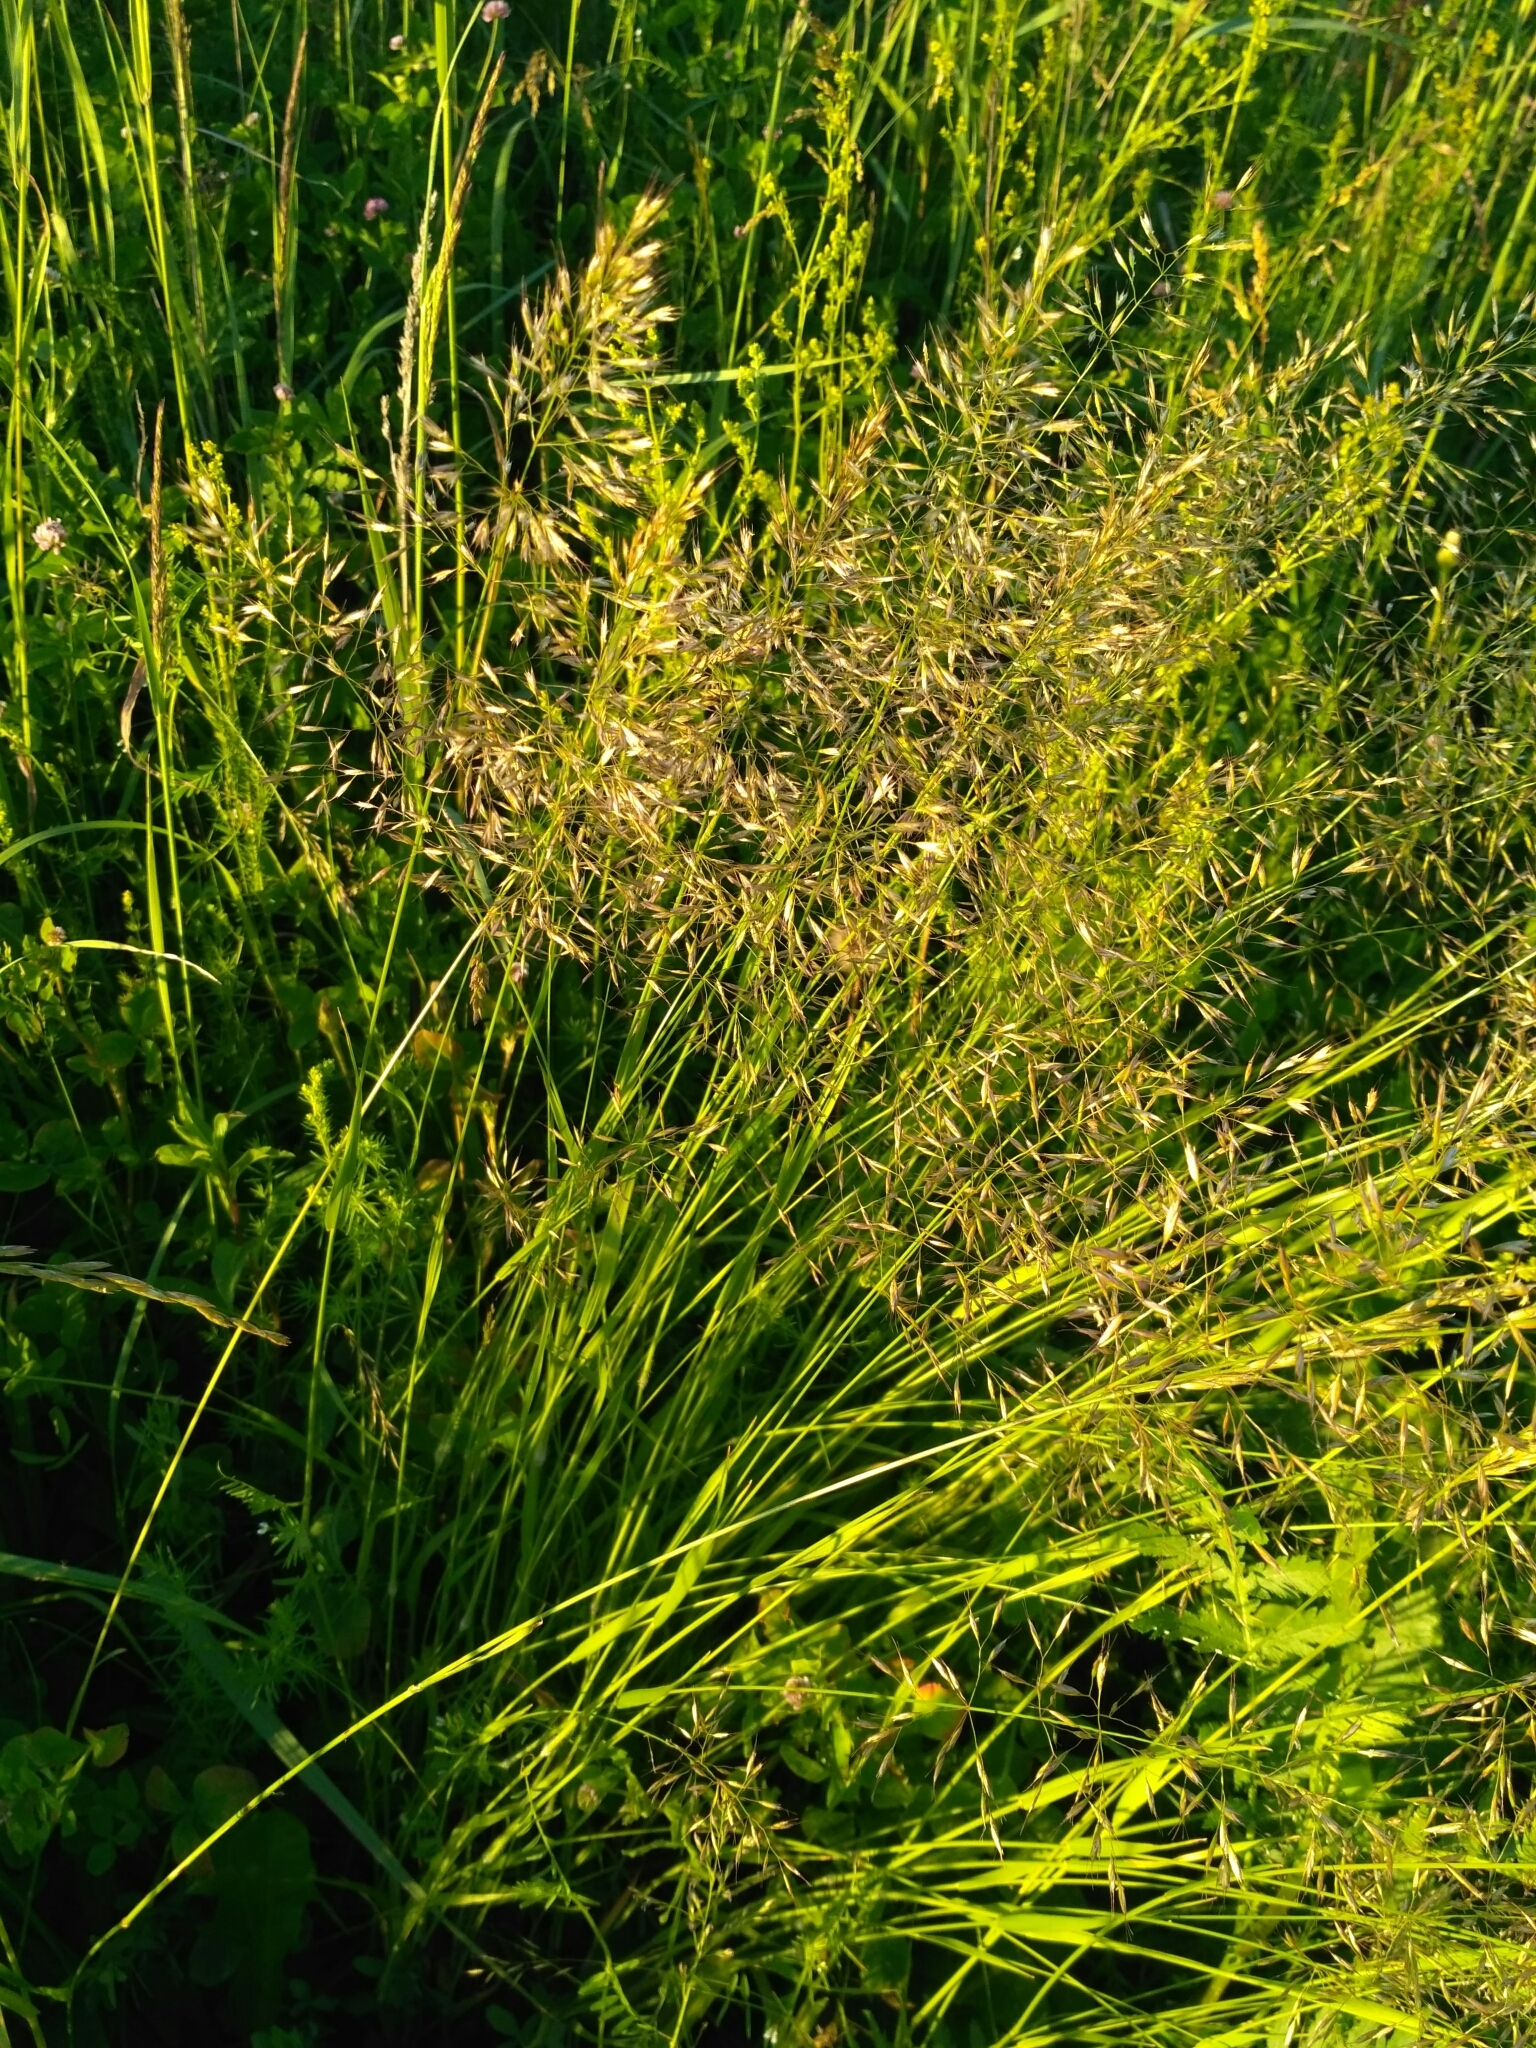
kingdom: Plantae
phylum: Tracheophyta
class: Liliopsida
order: Poales
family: Poaceae
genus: Trisetum
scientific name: Trisetum flavescens
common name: Yellow oat-grass
